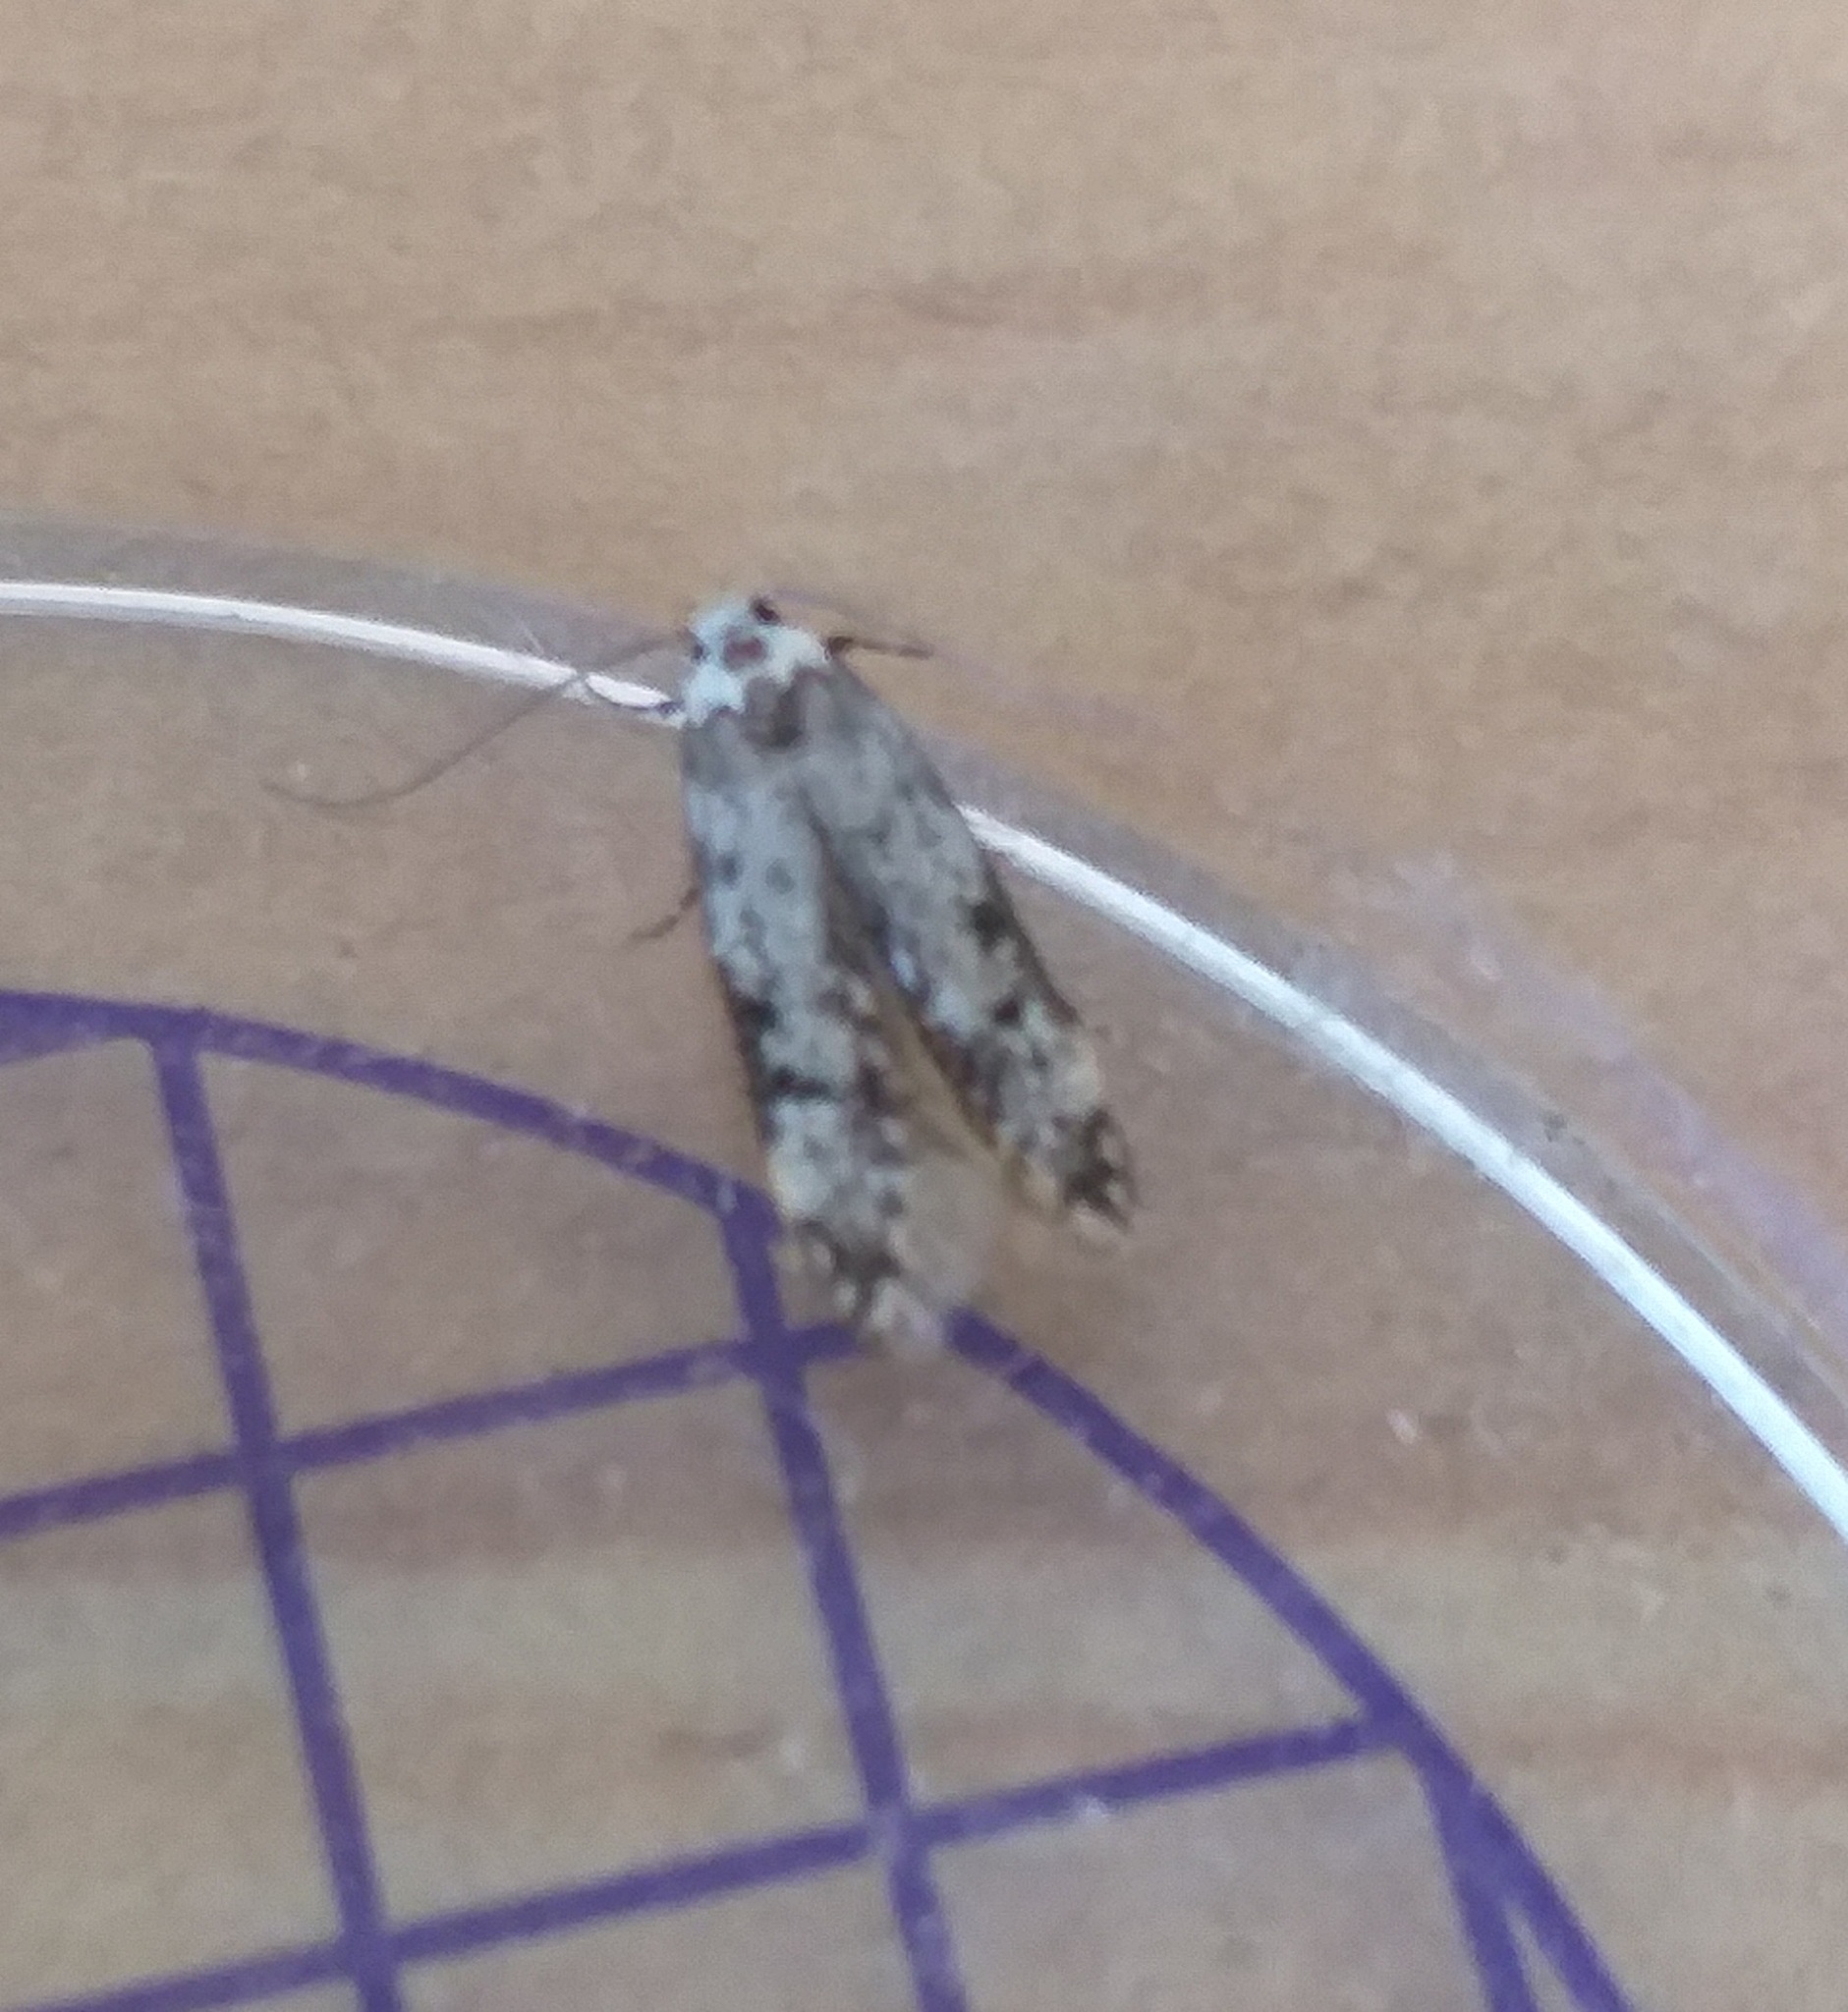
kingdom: Animalia
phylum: Arthropoda
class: Insecta
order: Lepidoptera
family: Oecophoridae
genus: Endrosis
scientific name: Endrosis sarcitrella
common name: White-shouldered house moth
